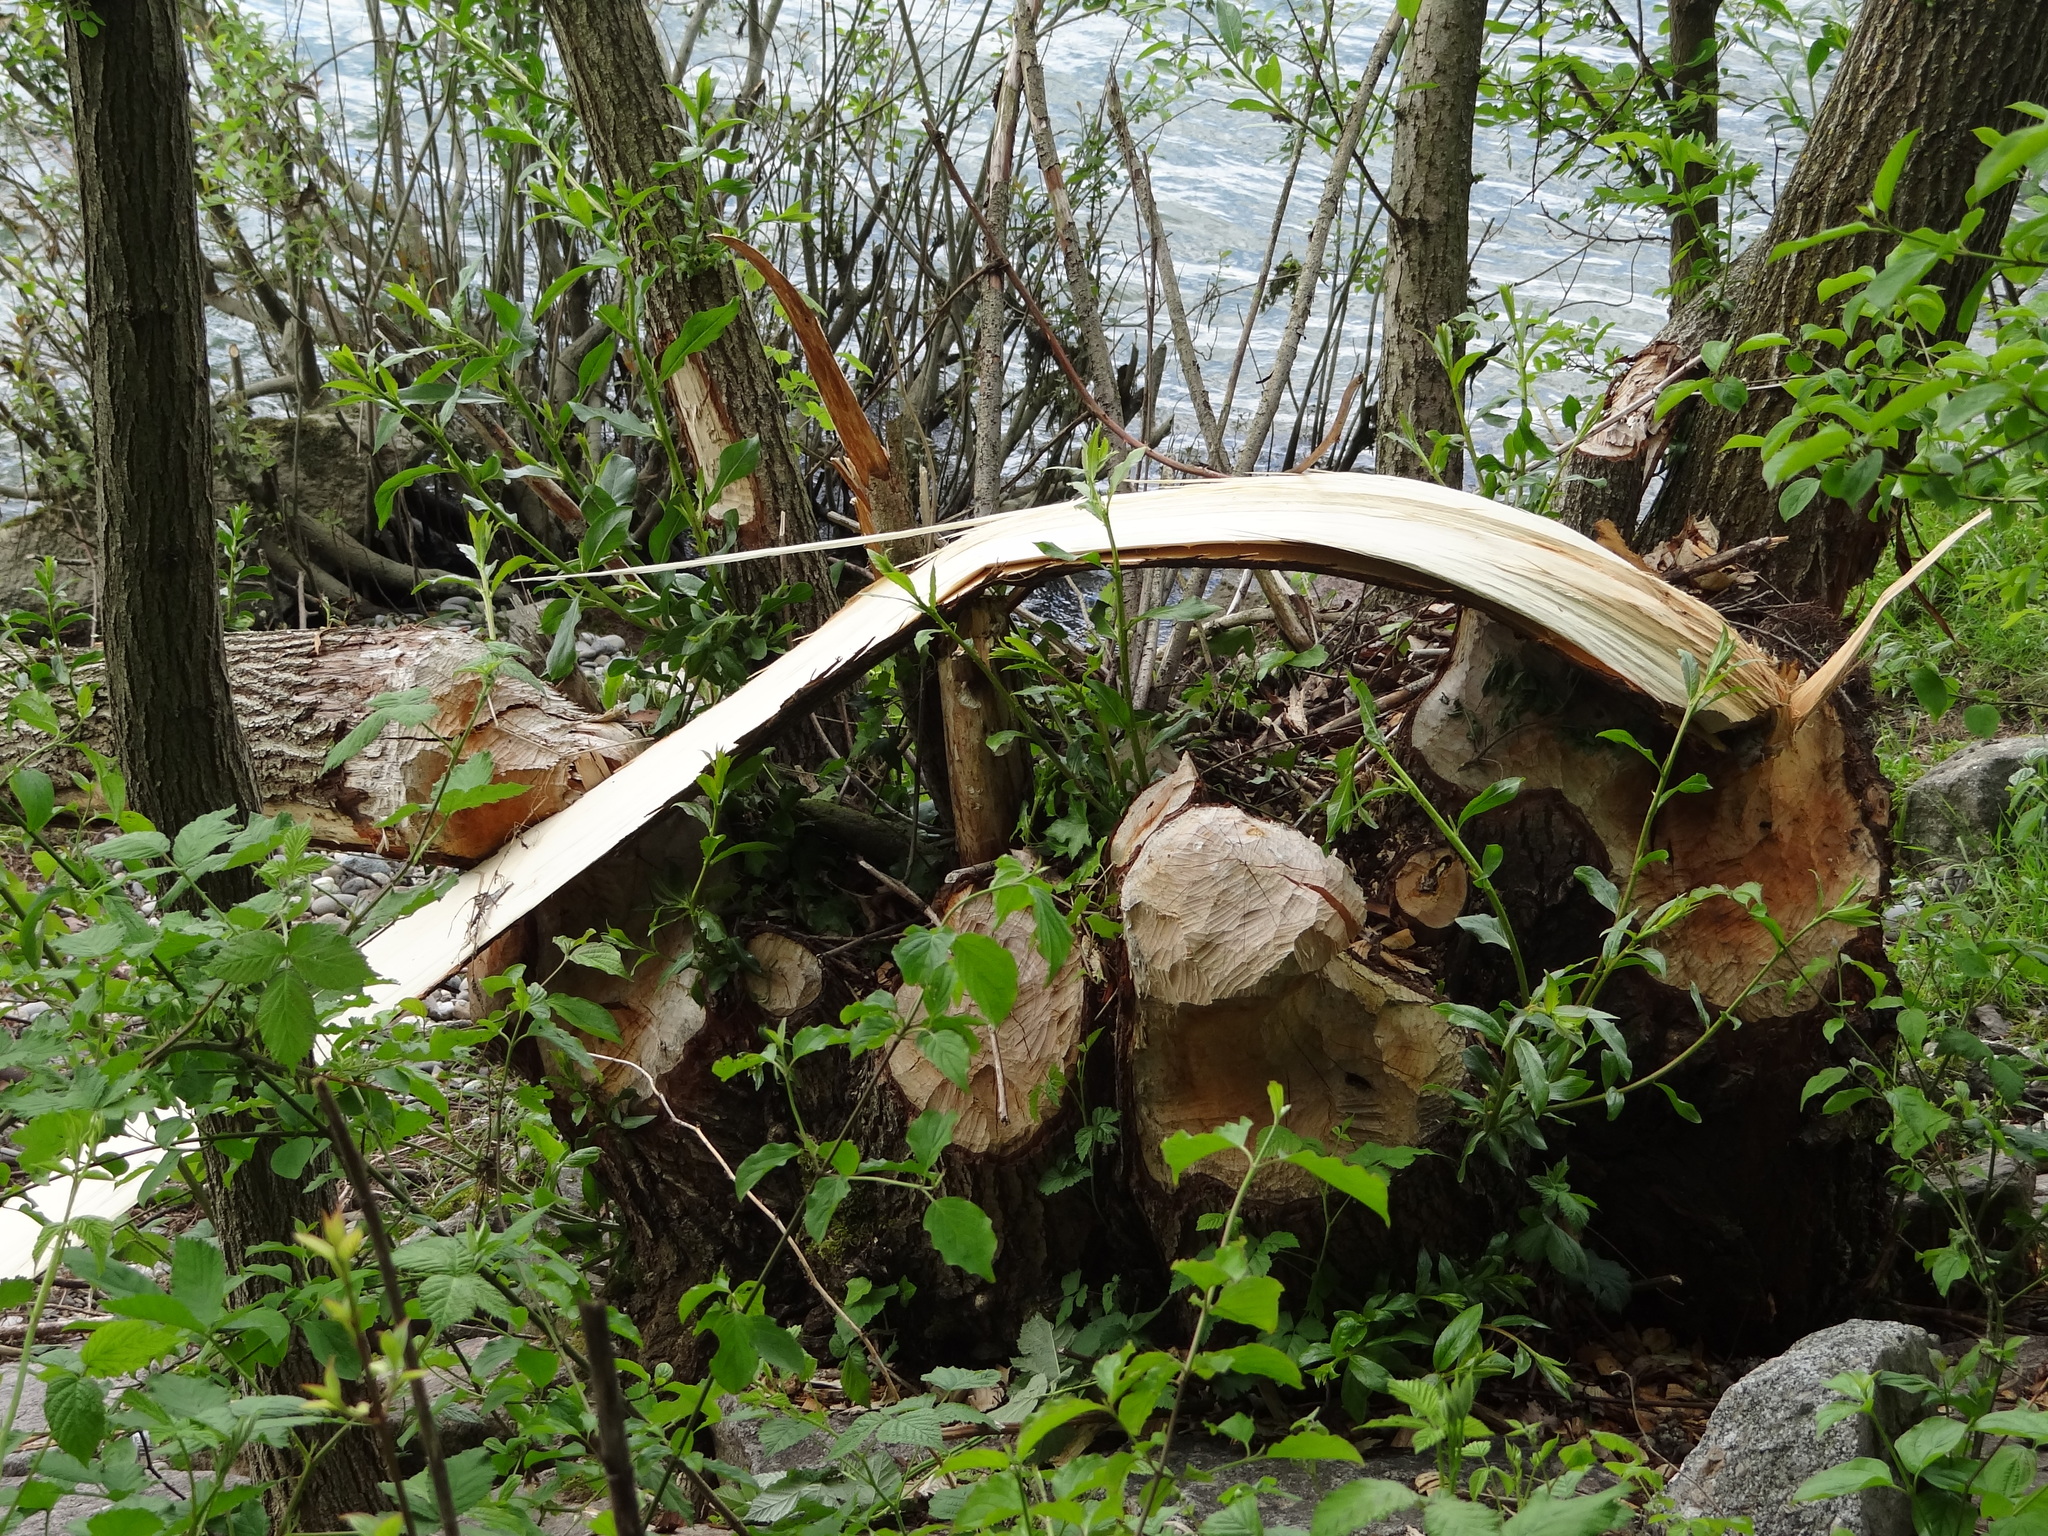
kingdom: Animalia
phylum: Chordata
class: Mammalia
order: Rodentia
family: Castoridae
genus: Castor
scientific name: Castor fiber
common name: Eurasian beaver
